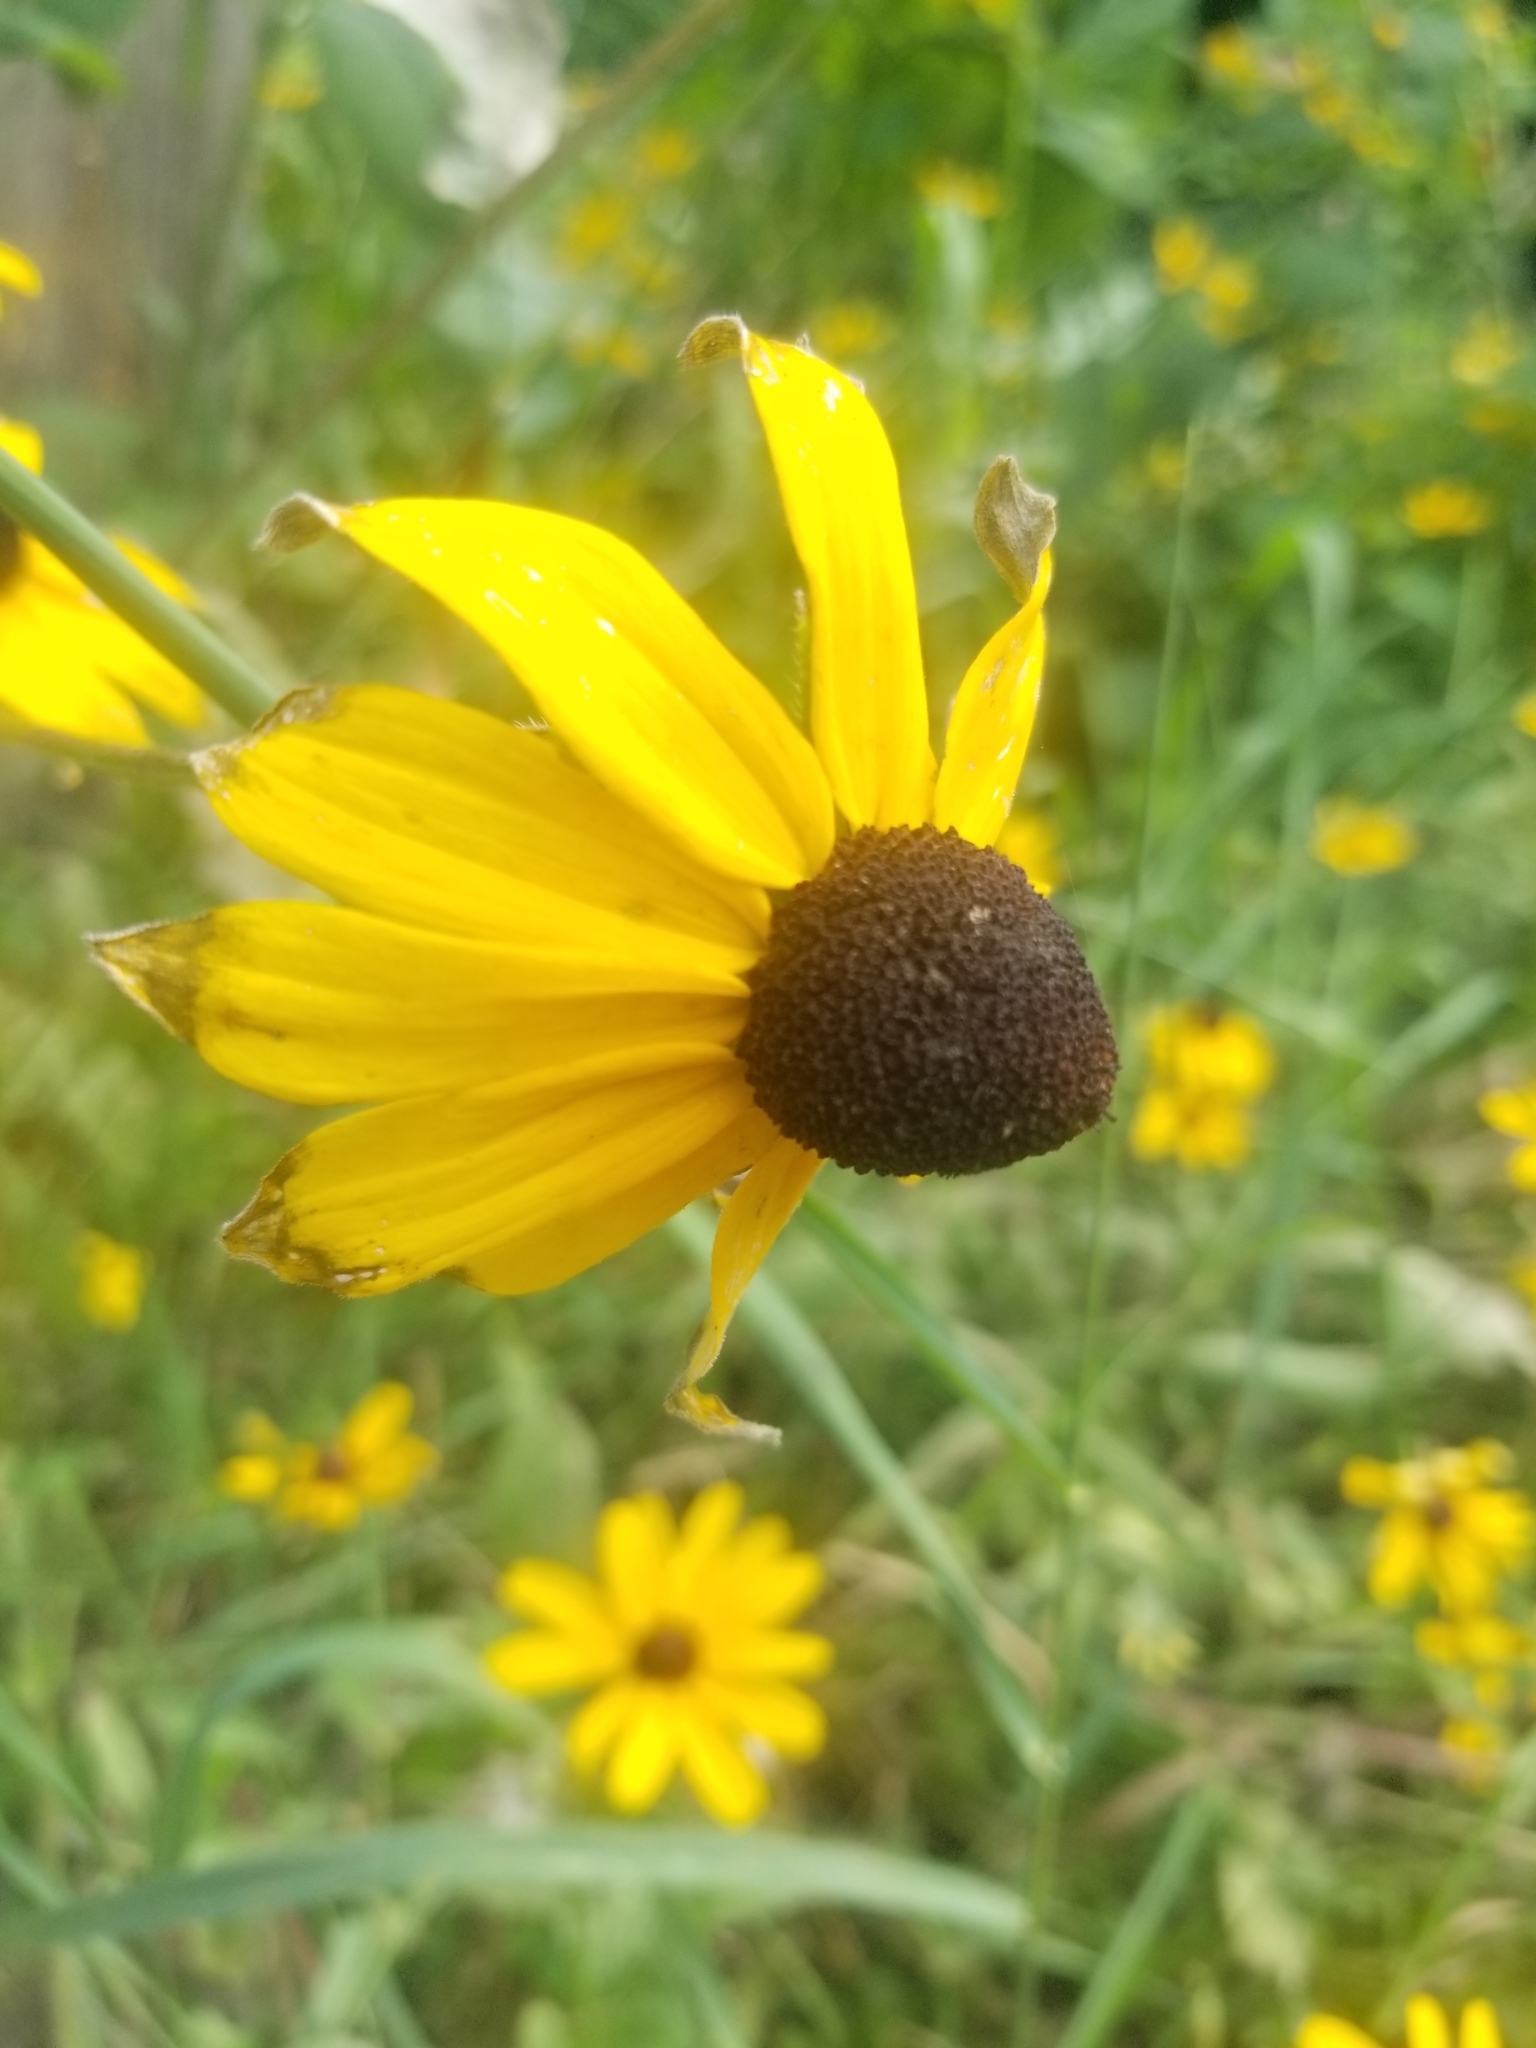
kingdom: Plantae
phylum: Tracheophyta
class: Magnoliopsida
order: Asterales
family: Asteraceae
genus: Rudbeckia
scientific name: Rudbeckia hirta
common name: Black-eyed-susan
